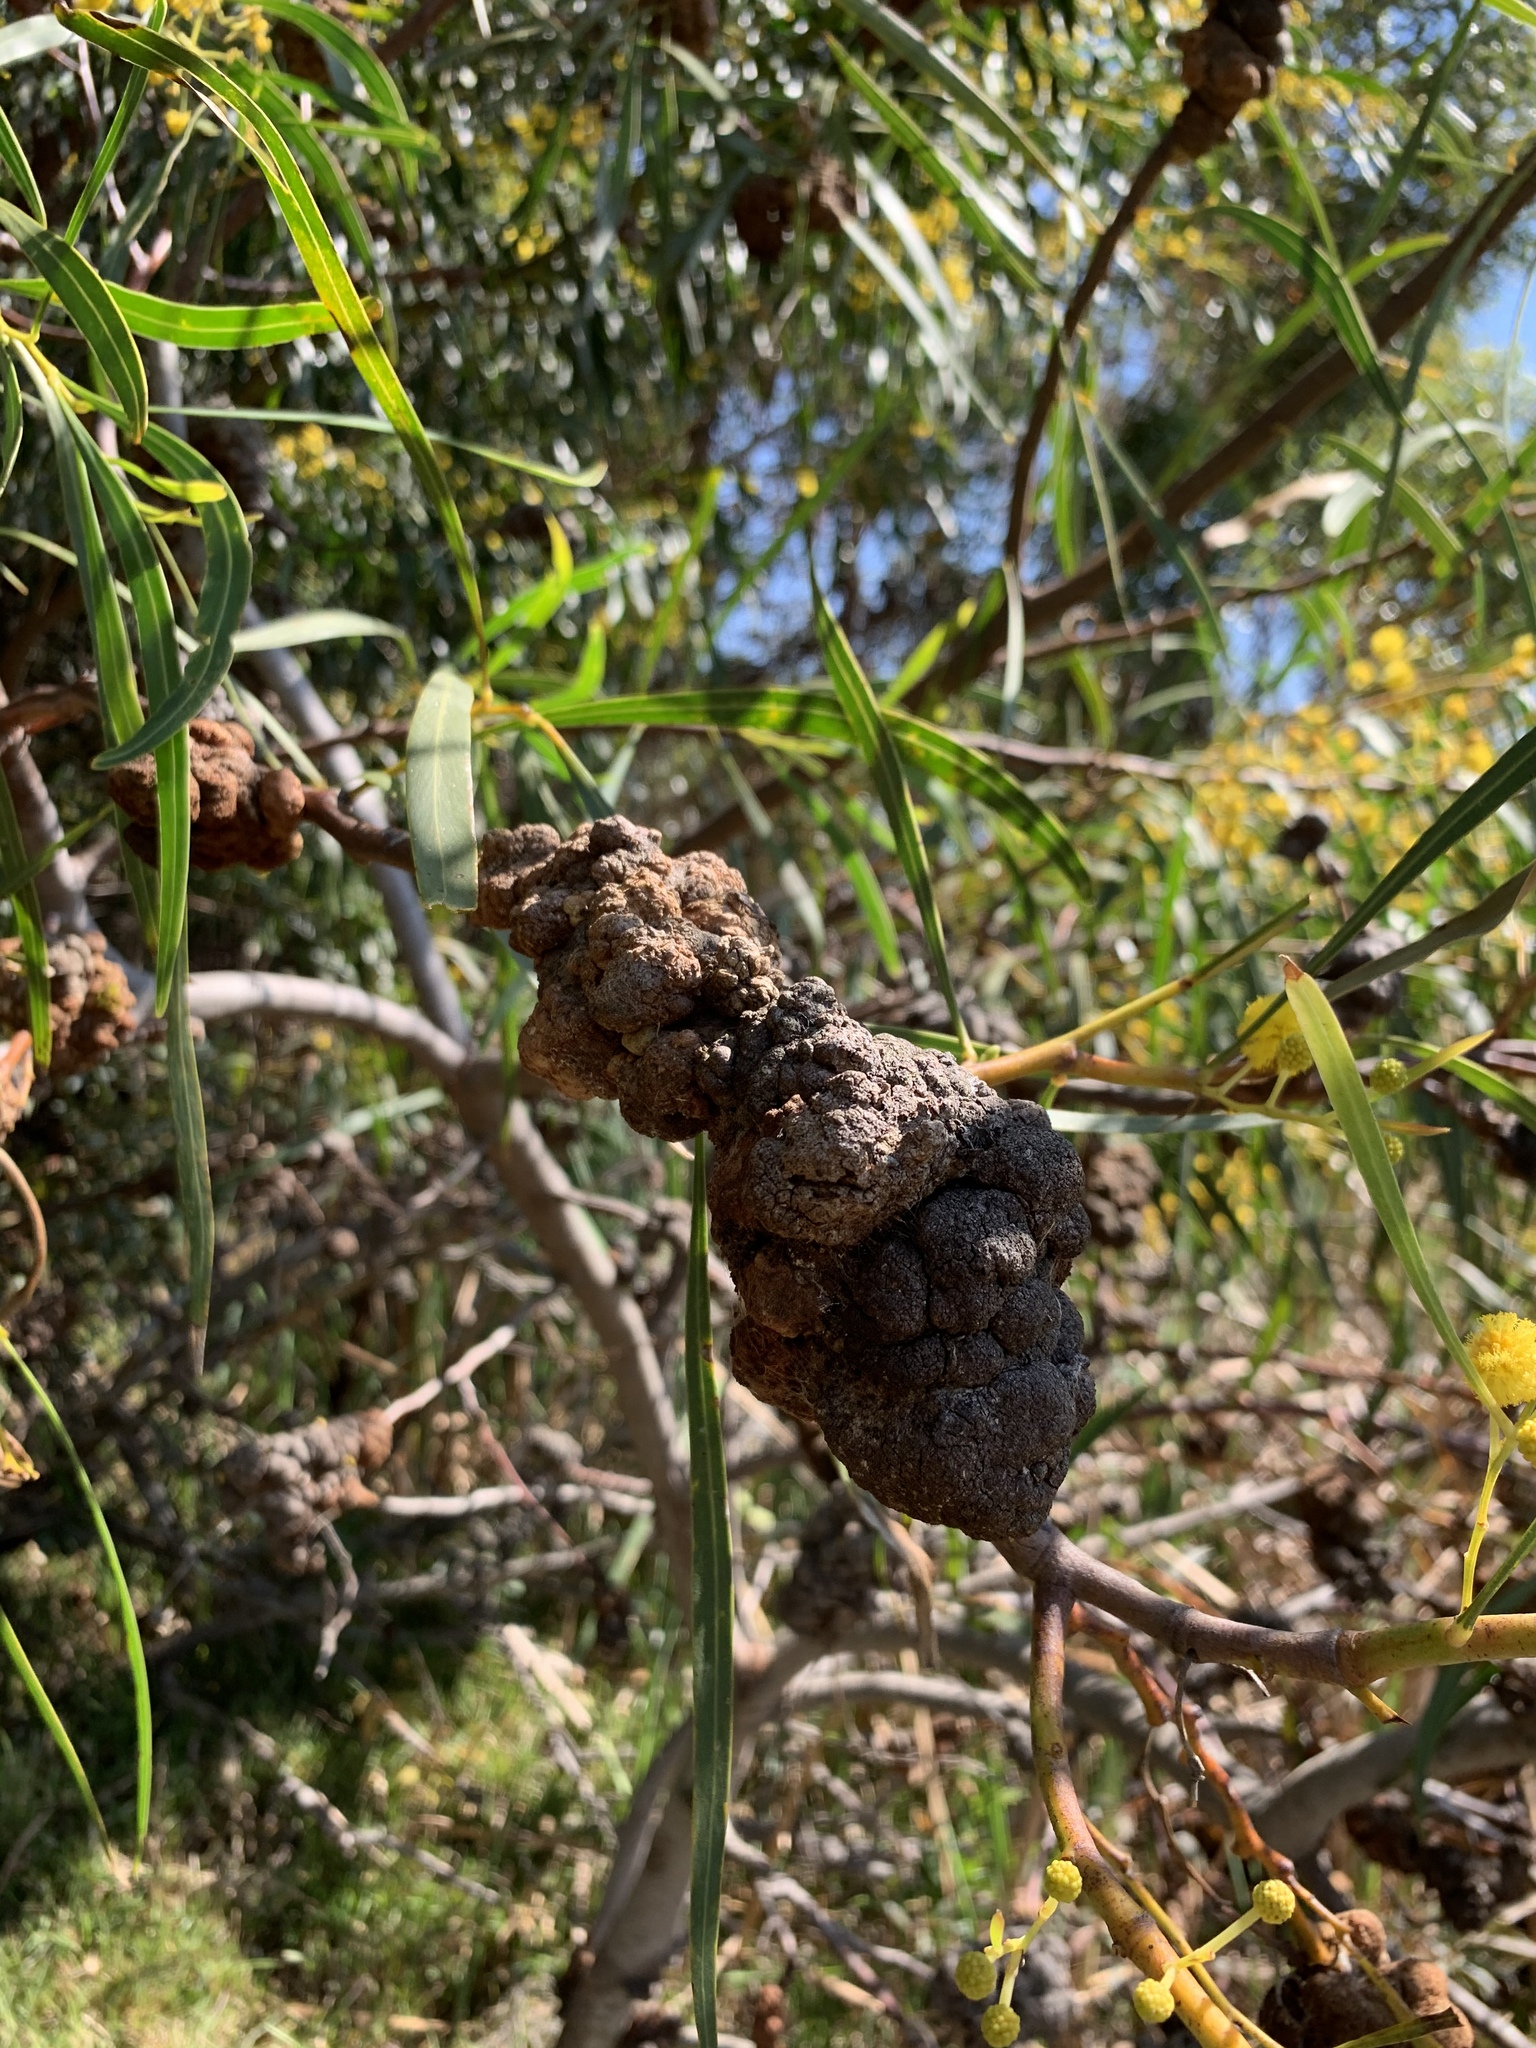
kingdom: Fungi
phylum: Basidiomycota
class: Pucciniomycetes
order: Pucciniales
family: Uromycladiaceae
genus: Uromycladium
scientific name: Uromycladium morrisii
